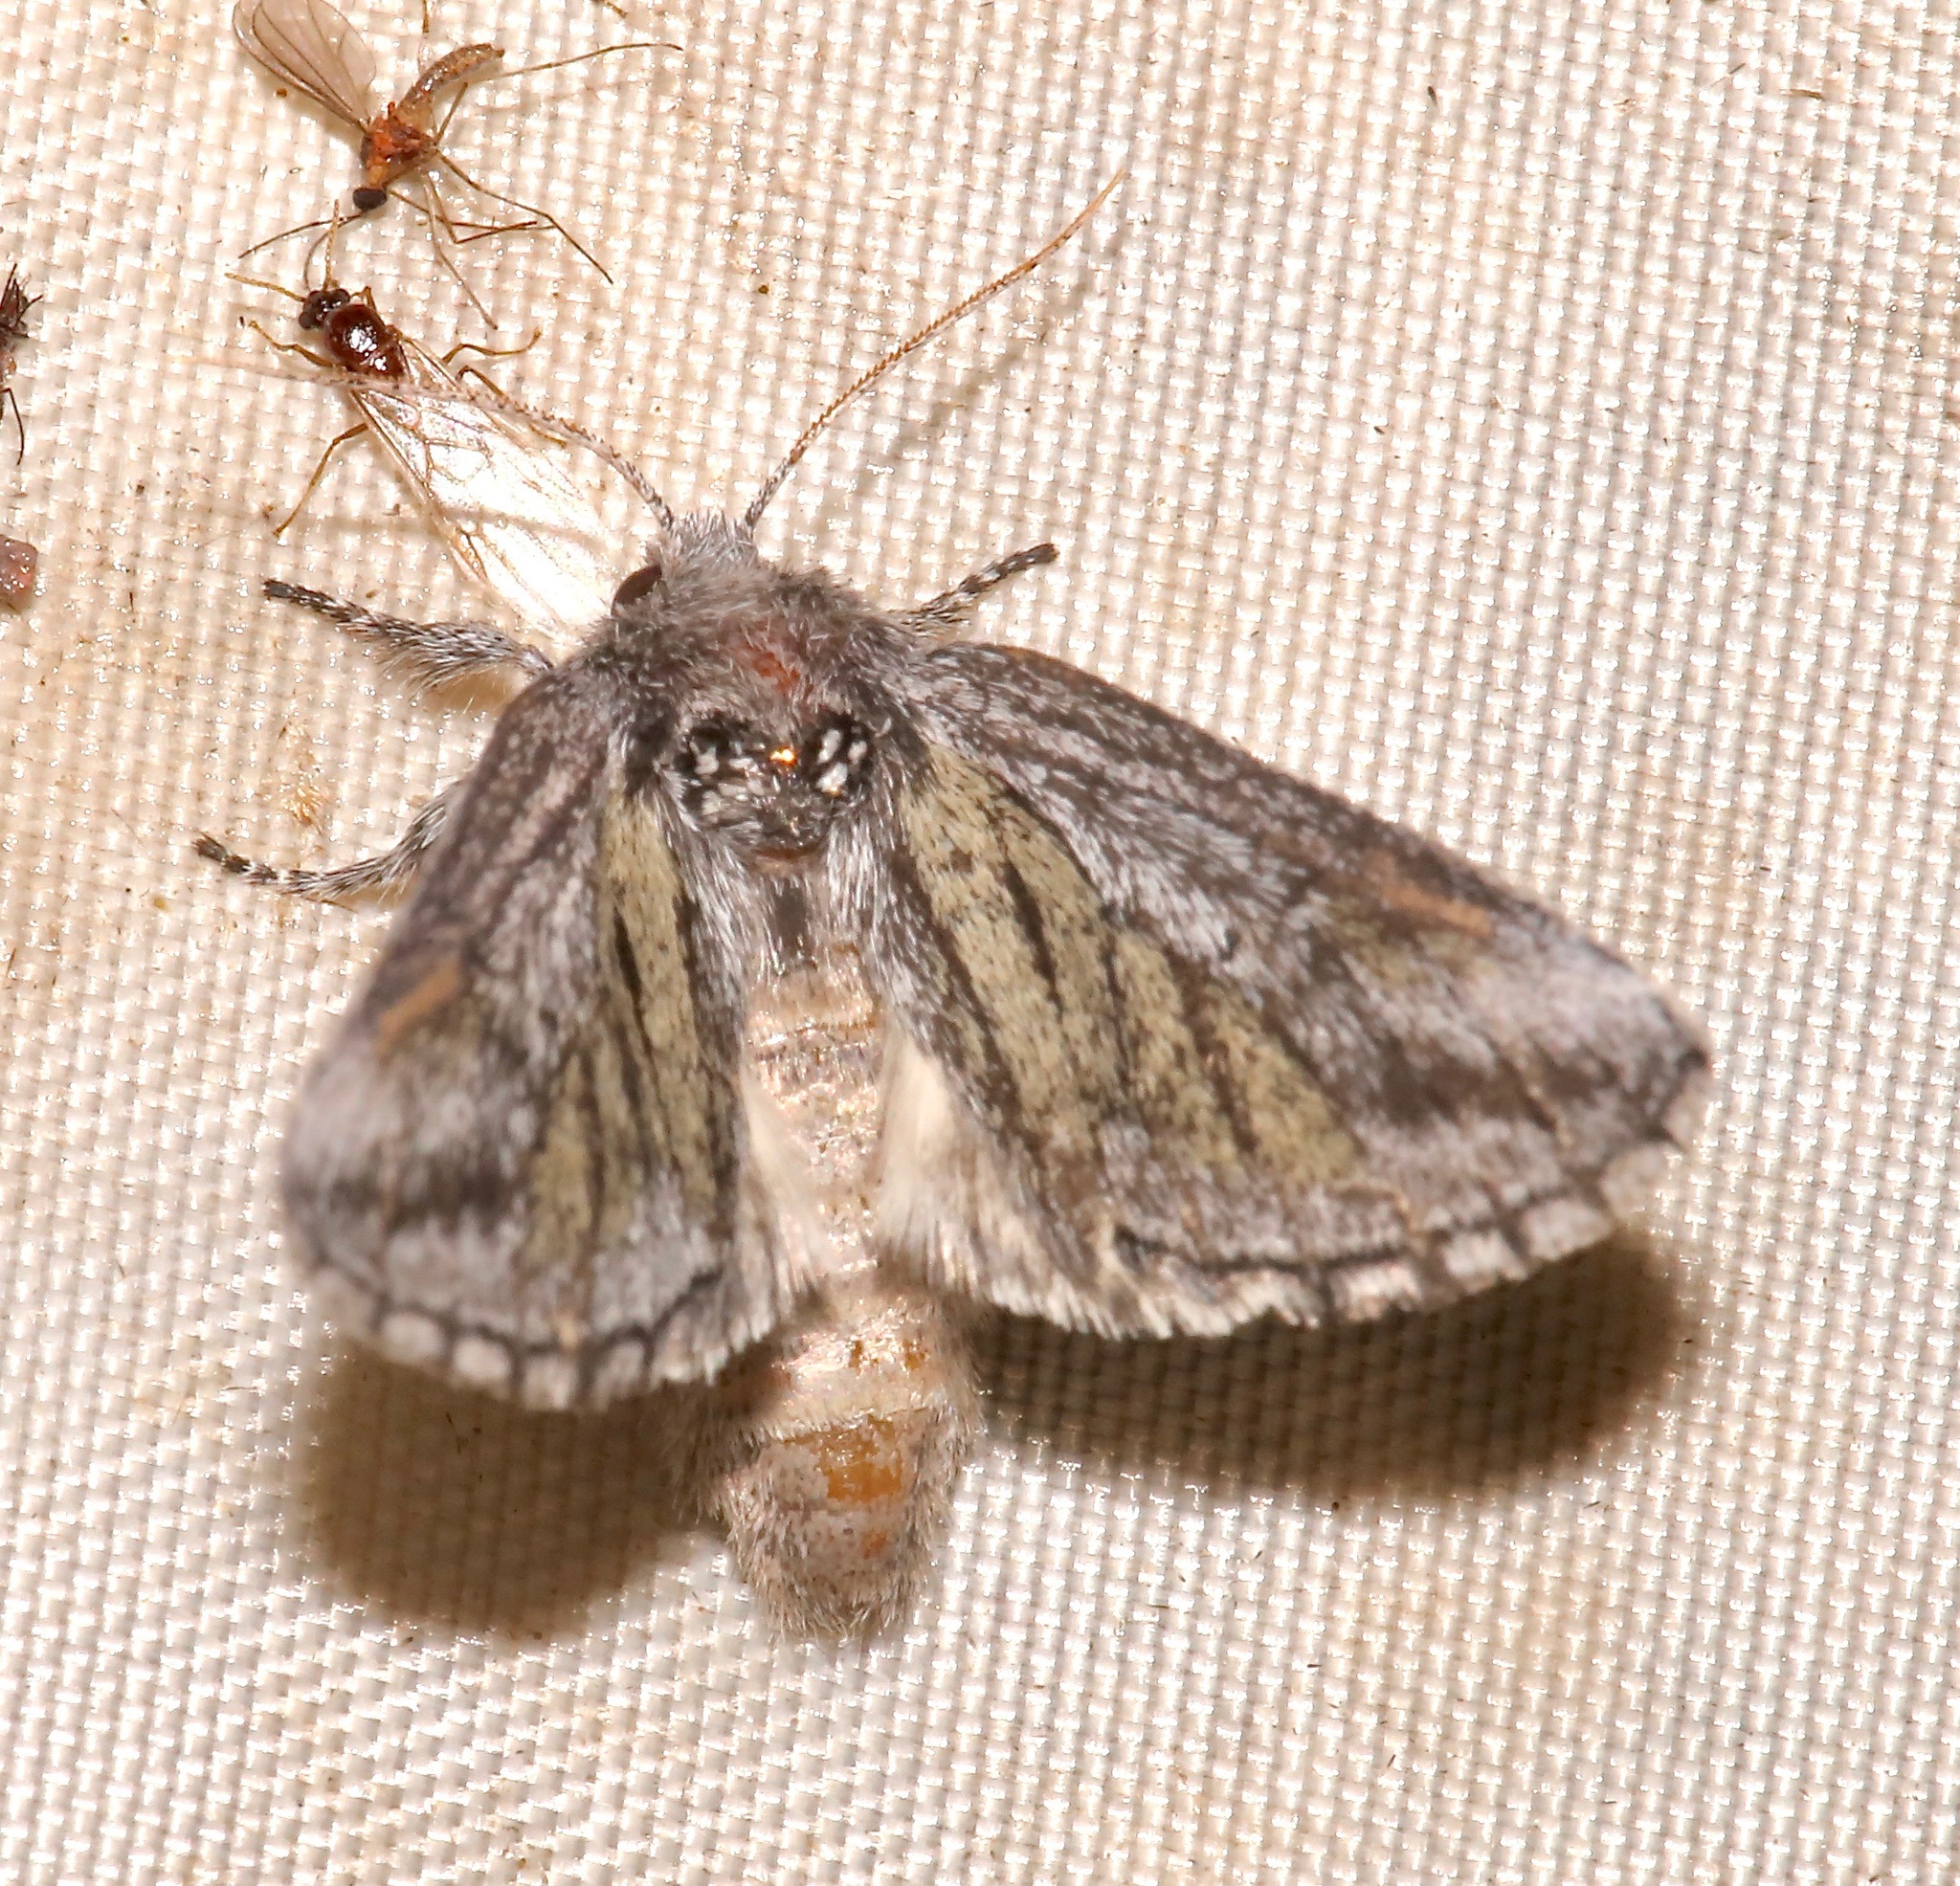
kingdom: Animalia
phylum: Arthropoda
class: Insecta
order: Lepidoptera
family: Notodontidae
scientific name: Notodontidae
